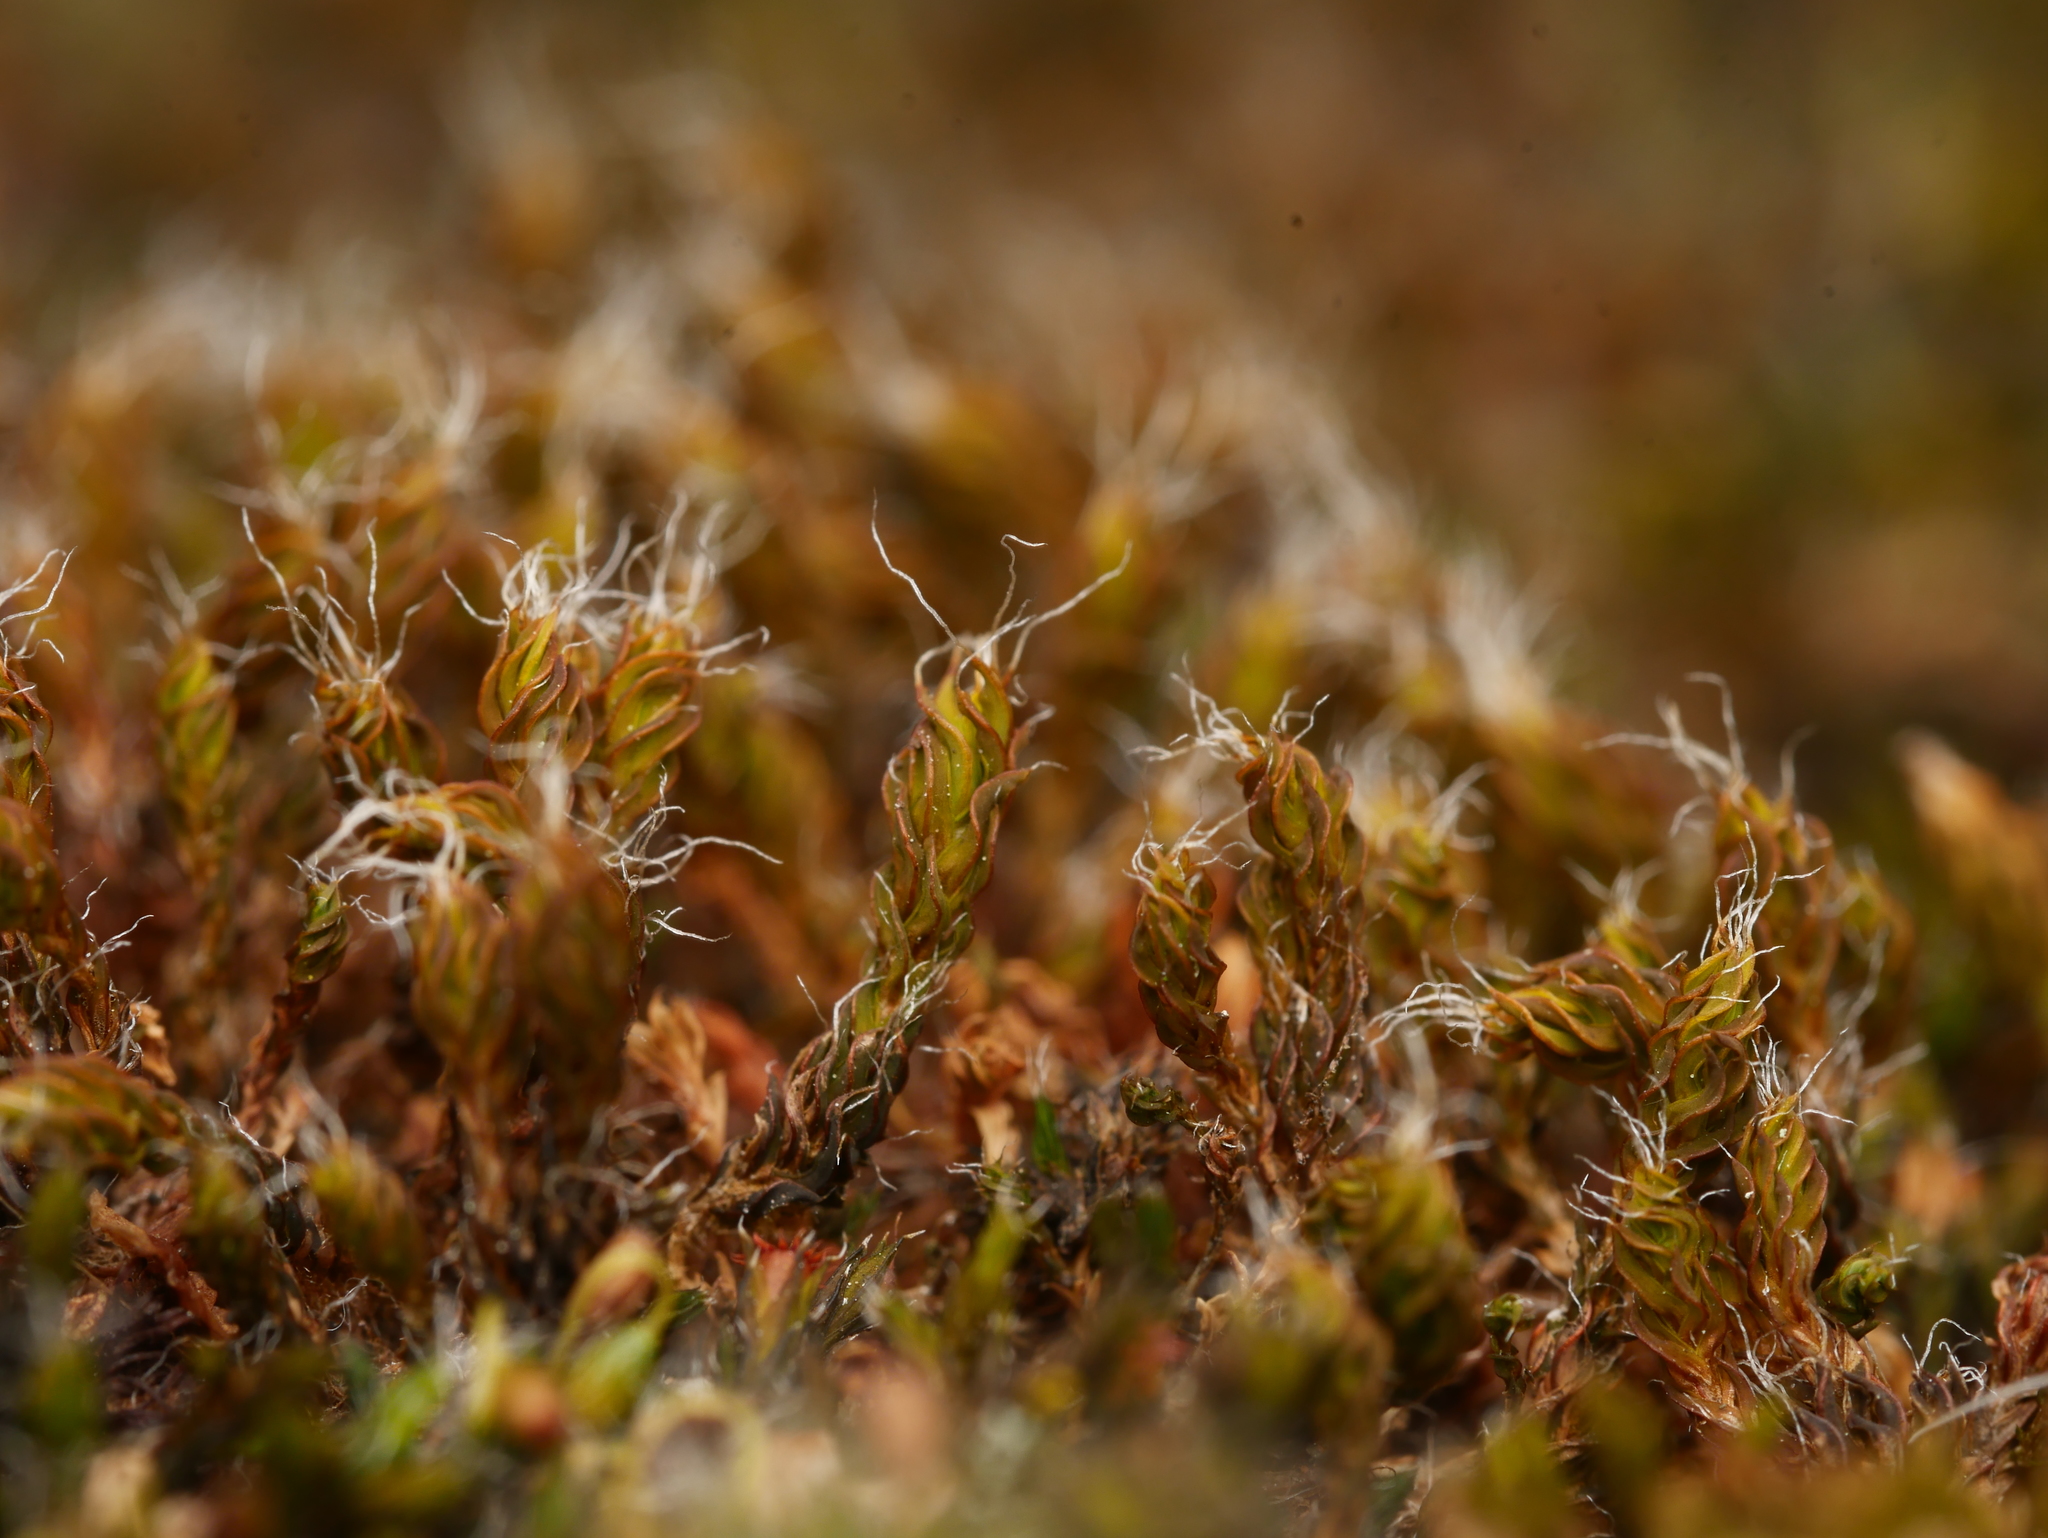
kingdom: Plantae
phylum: Bryophyta
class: Bryopsida
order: Pottiales
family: Pottiaceae
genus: Syntrichia
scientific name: Syntrichia ruralis
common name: Sidewalk screw moss
